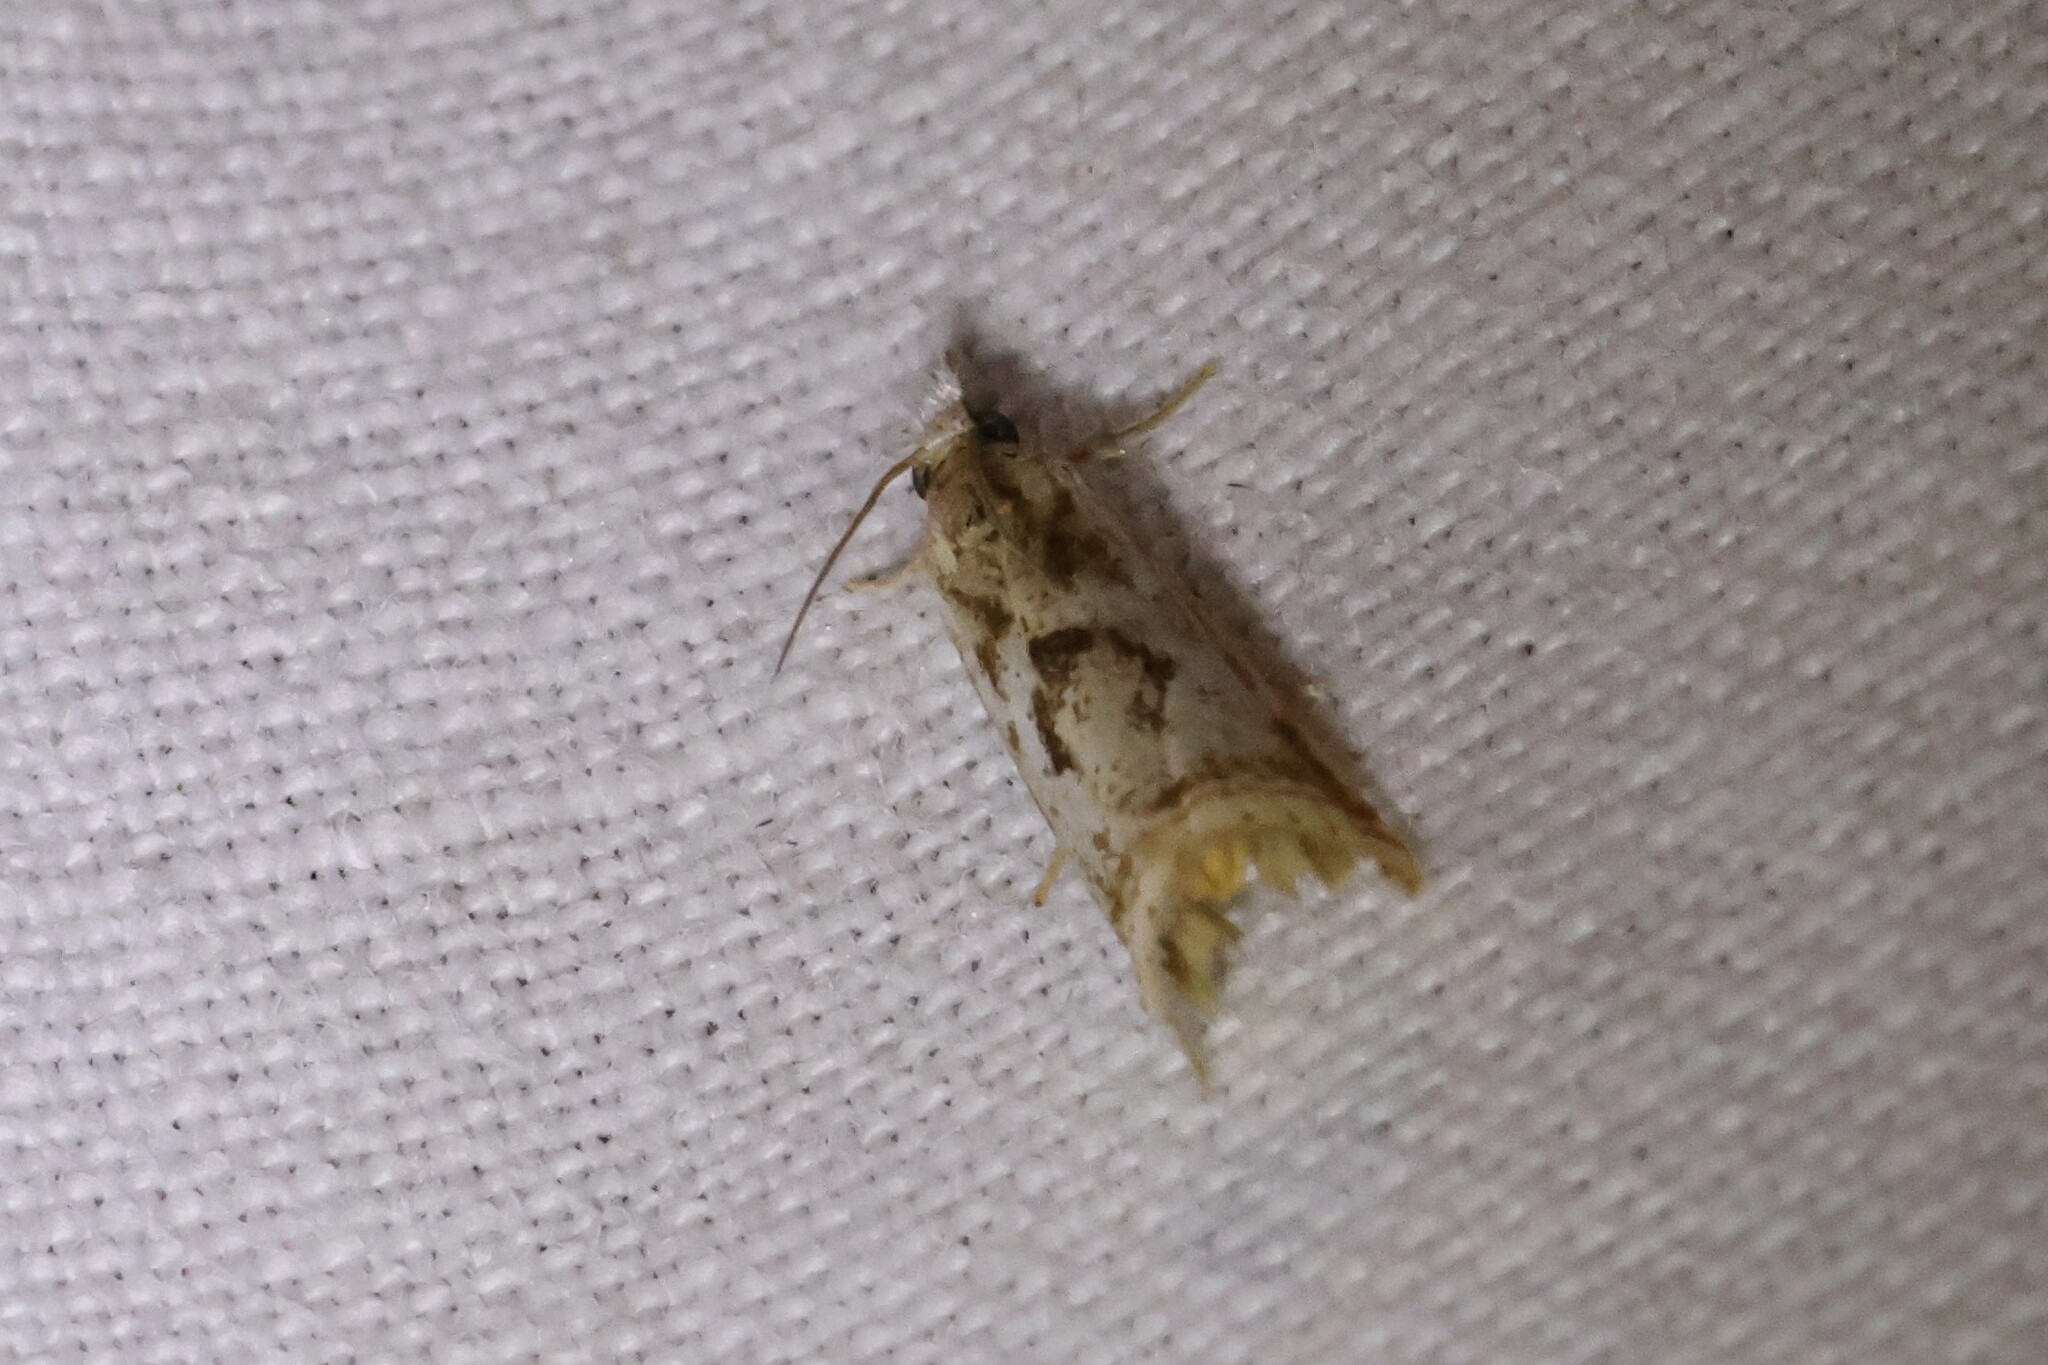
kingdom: Animalia
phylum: Arthropoda
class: Insecta
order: Lepidoptera
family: Crambidae
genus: Microcrambus
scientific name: Microcrambus elegans
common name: Elegant grass-veneer
